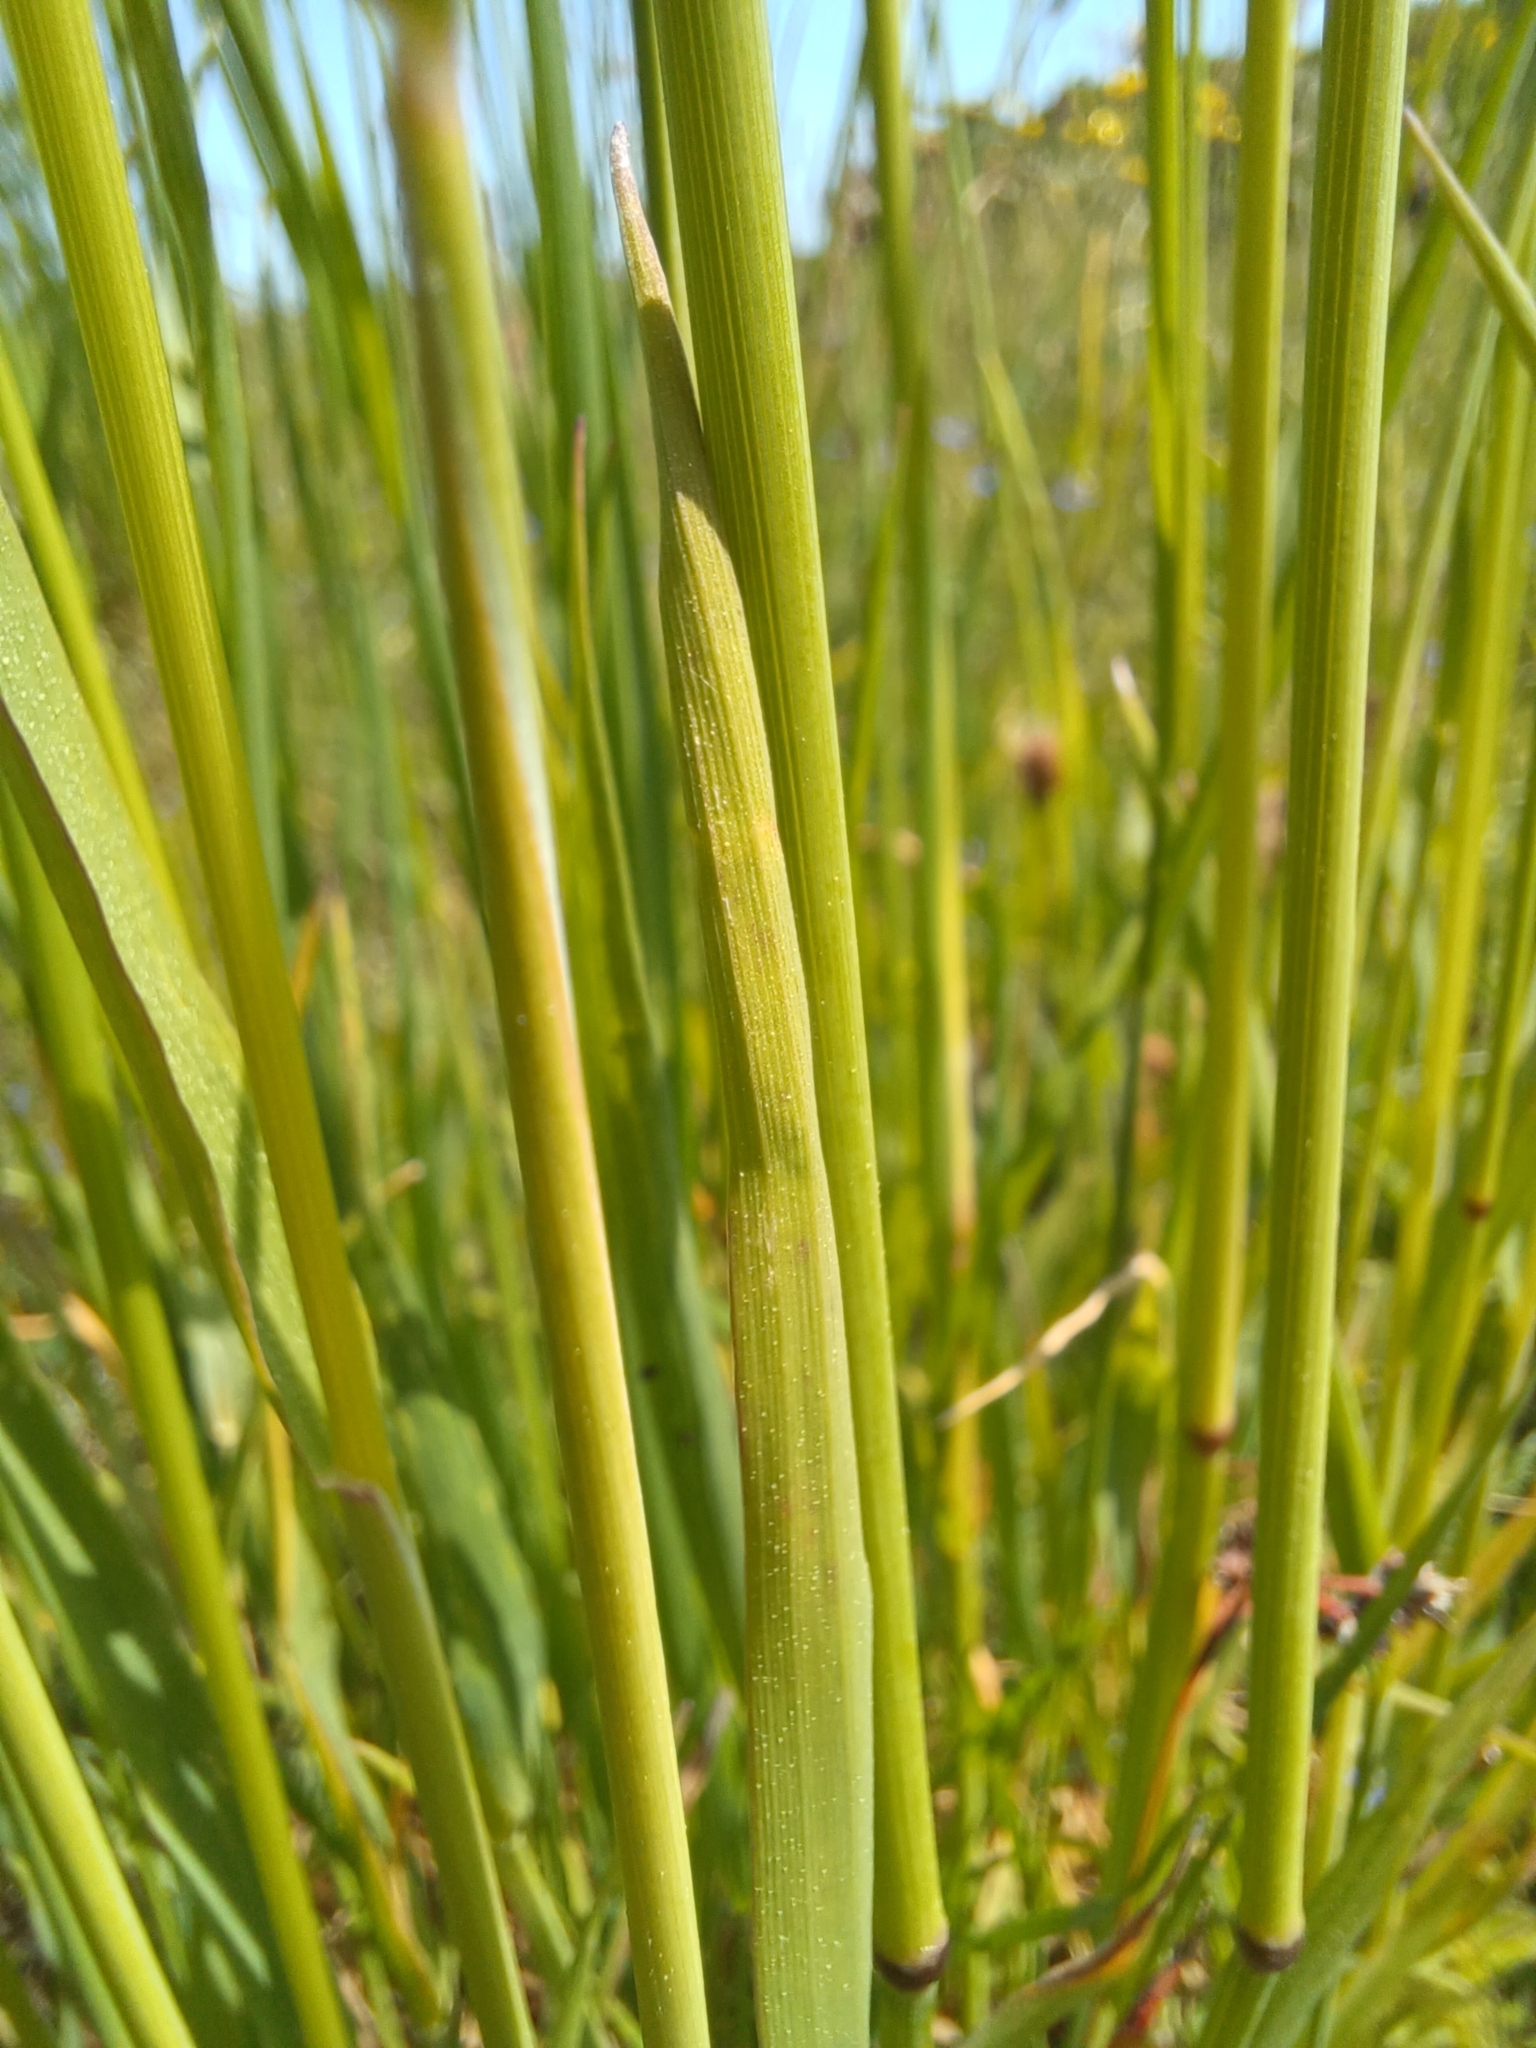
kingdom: Plantae
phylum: Tracheophyta
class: Liliopsida
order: Poales
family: Poaceae
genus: Arrhenatherum
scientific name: Arrhenatherum elatius
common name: Tall oatgrass
